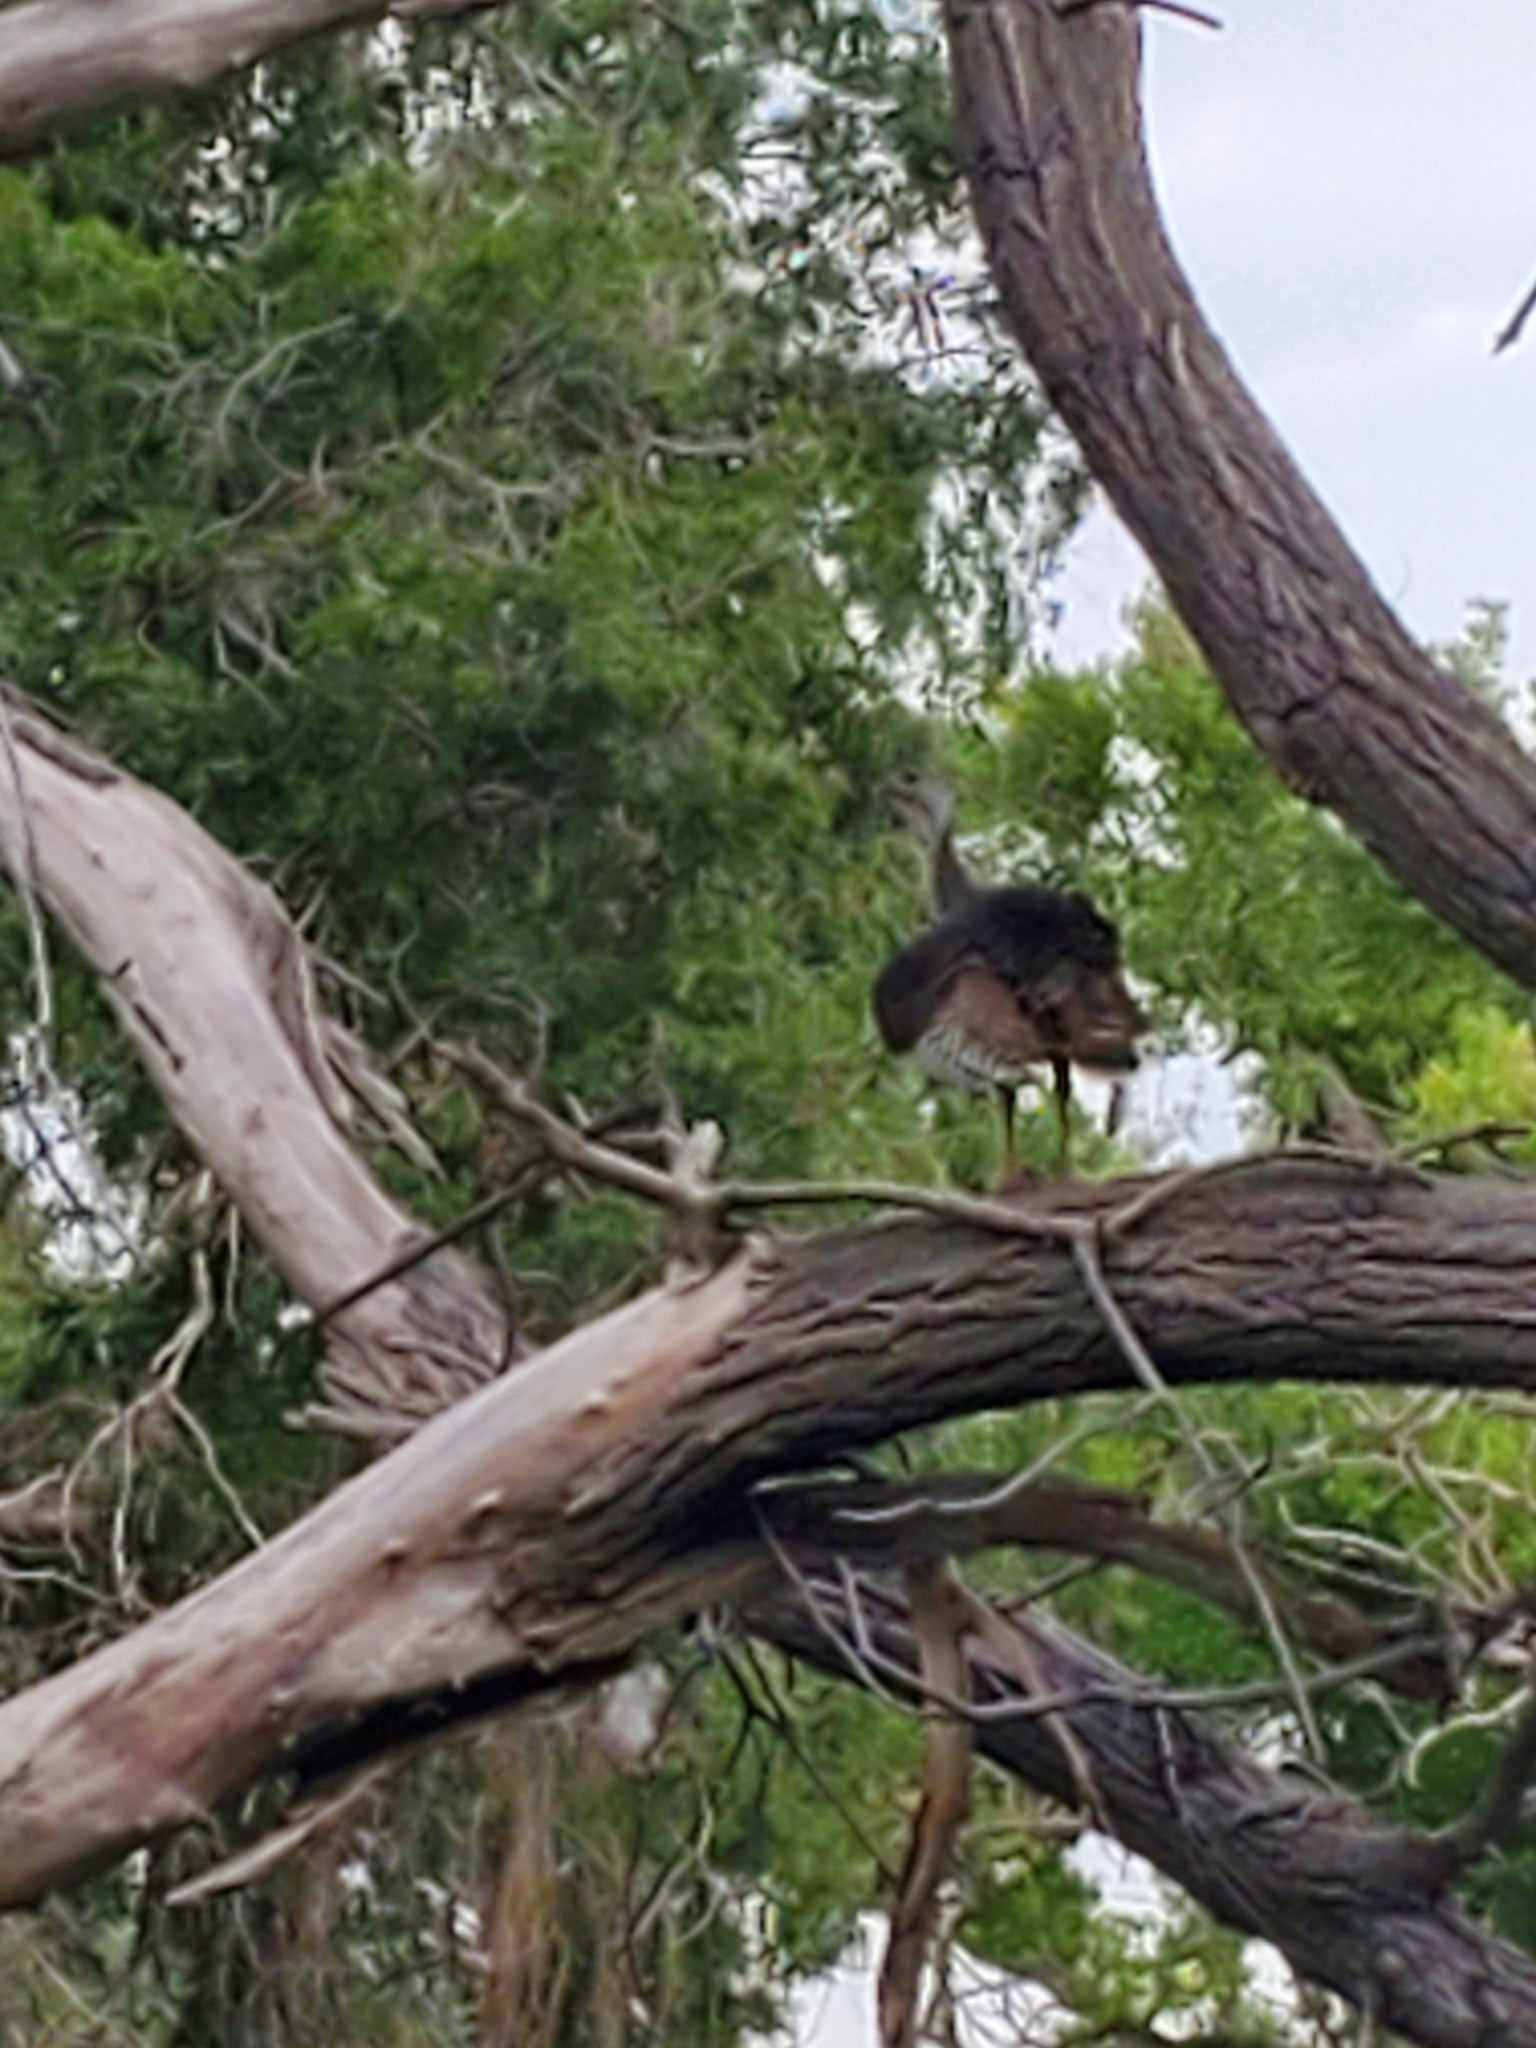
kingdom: Animalia
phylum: Chordata
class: Aves
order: Galliformes
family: Phasianidae
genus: Meleagris
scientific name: Meleagris gallopavo
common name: Wild turkey
